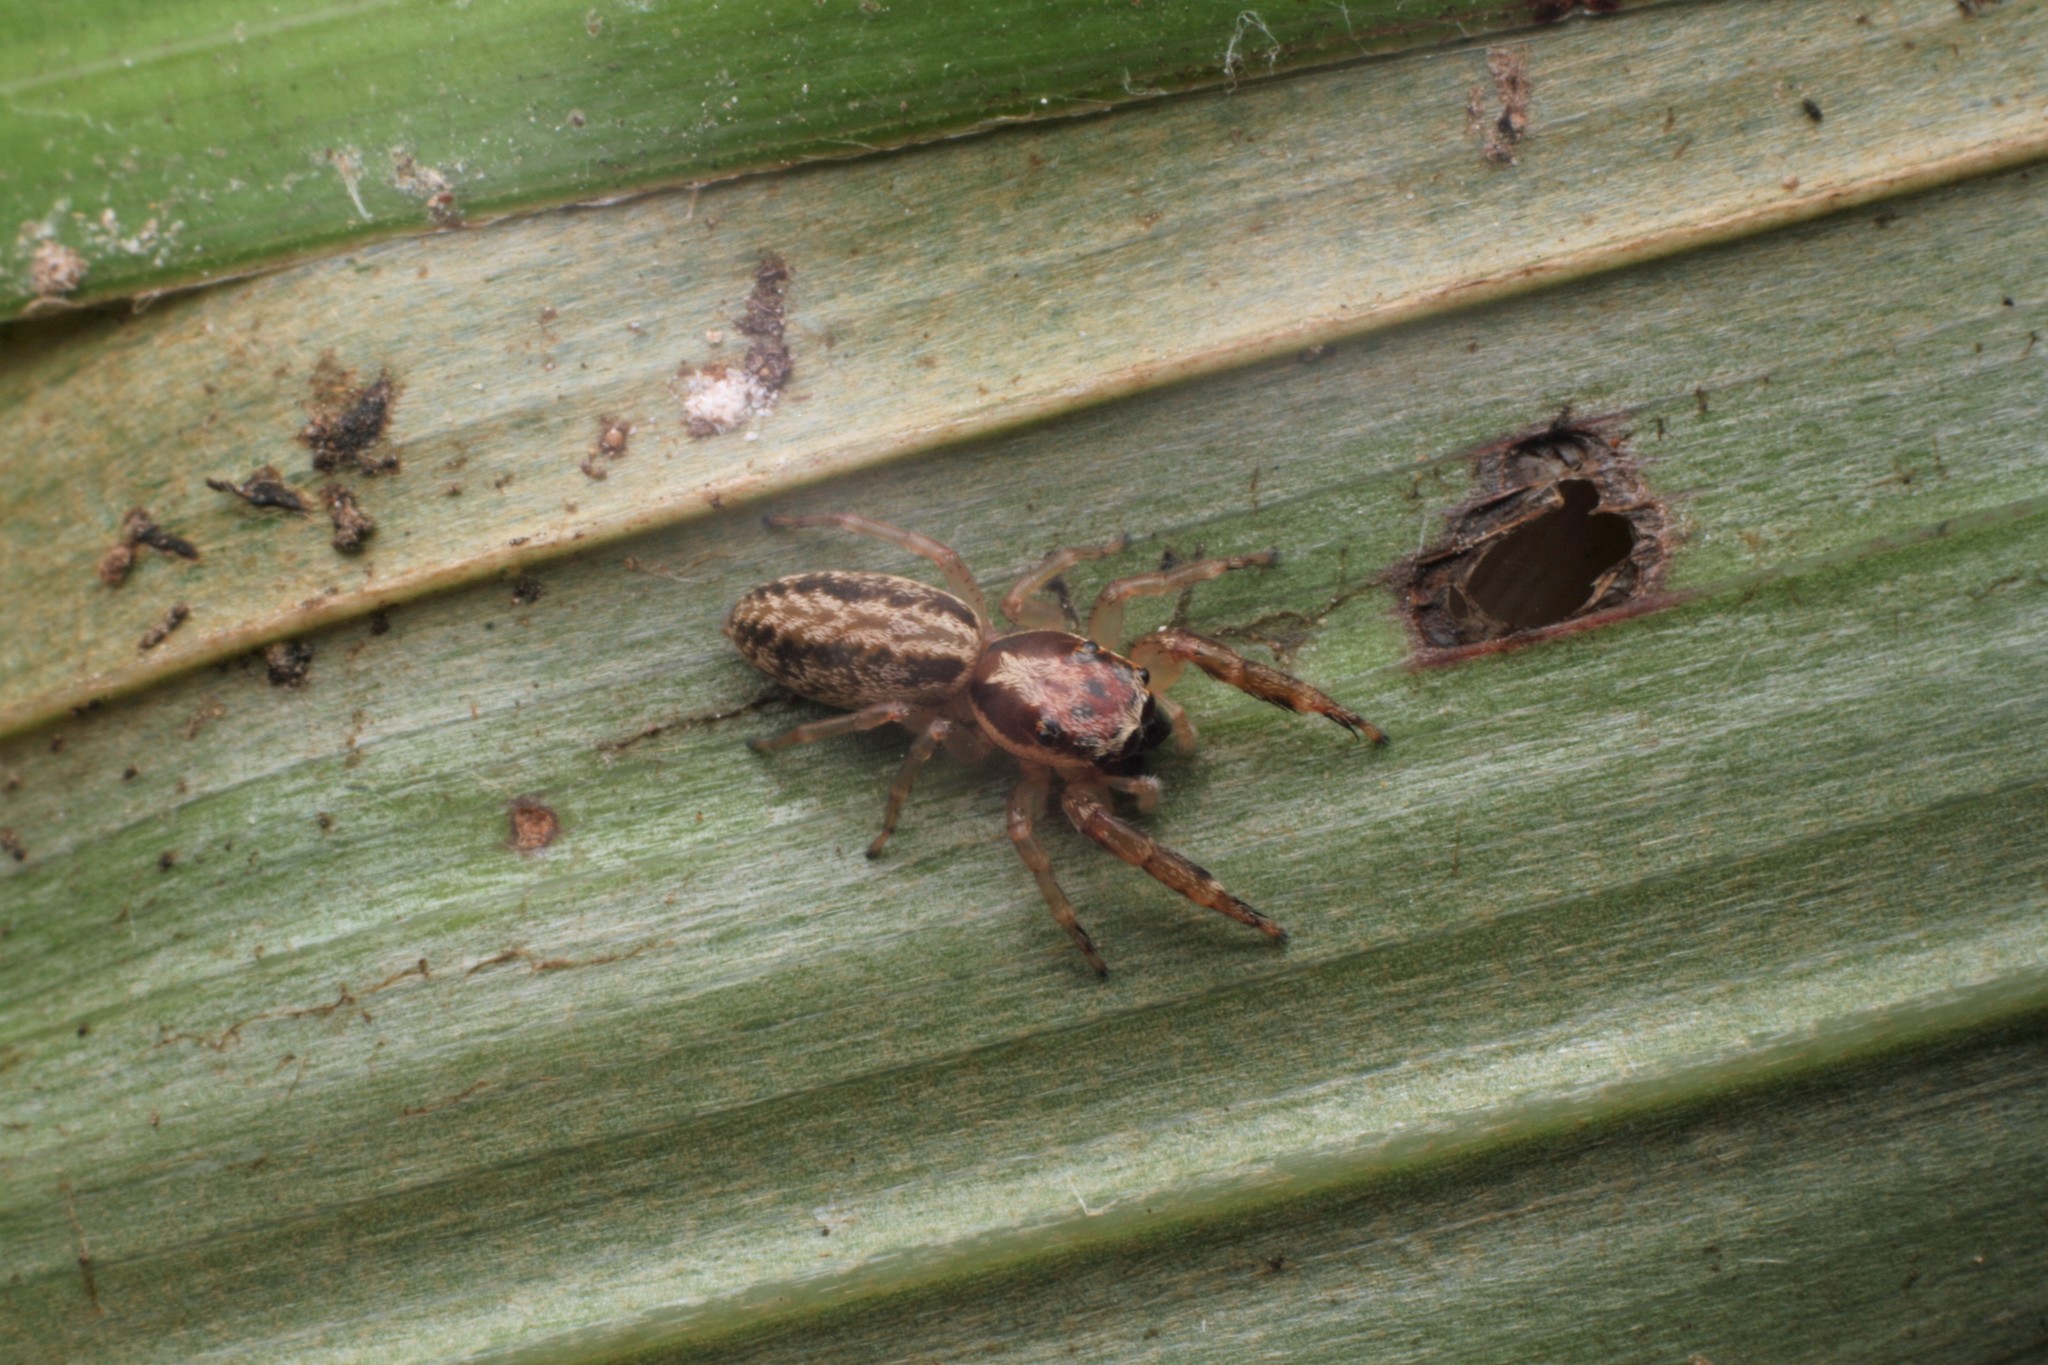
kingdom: Animalia
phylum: Arthropoda
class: Arachnida
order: Araneae
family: Salticidae
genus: Trite
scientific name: Trite mustilina
